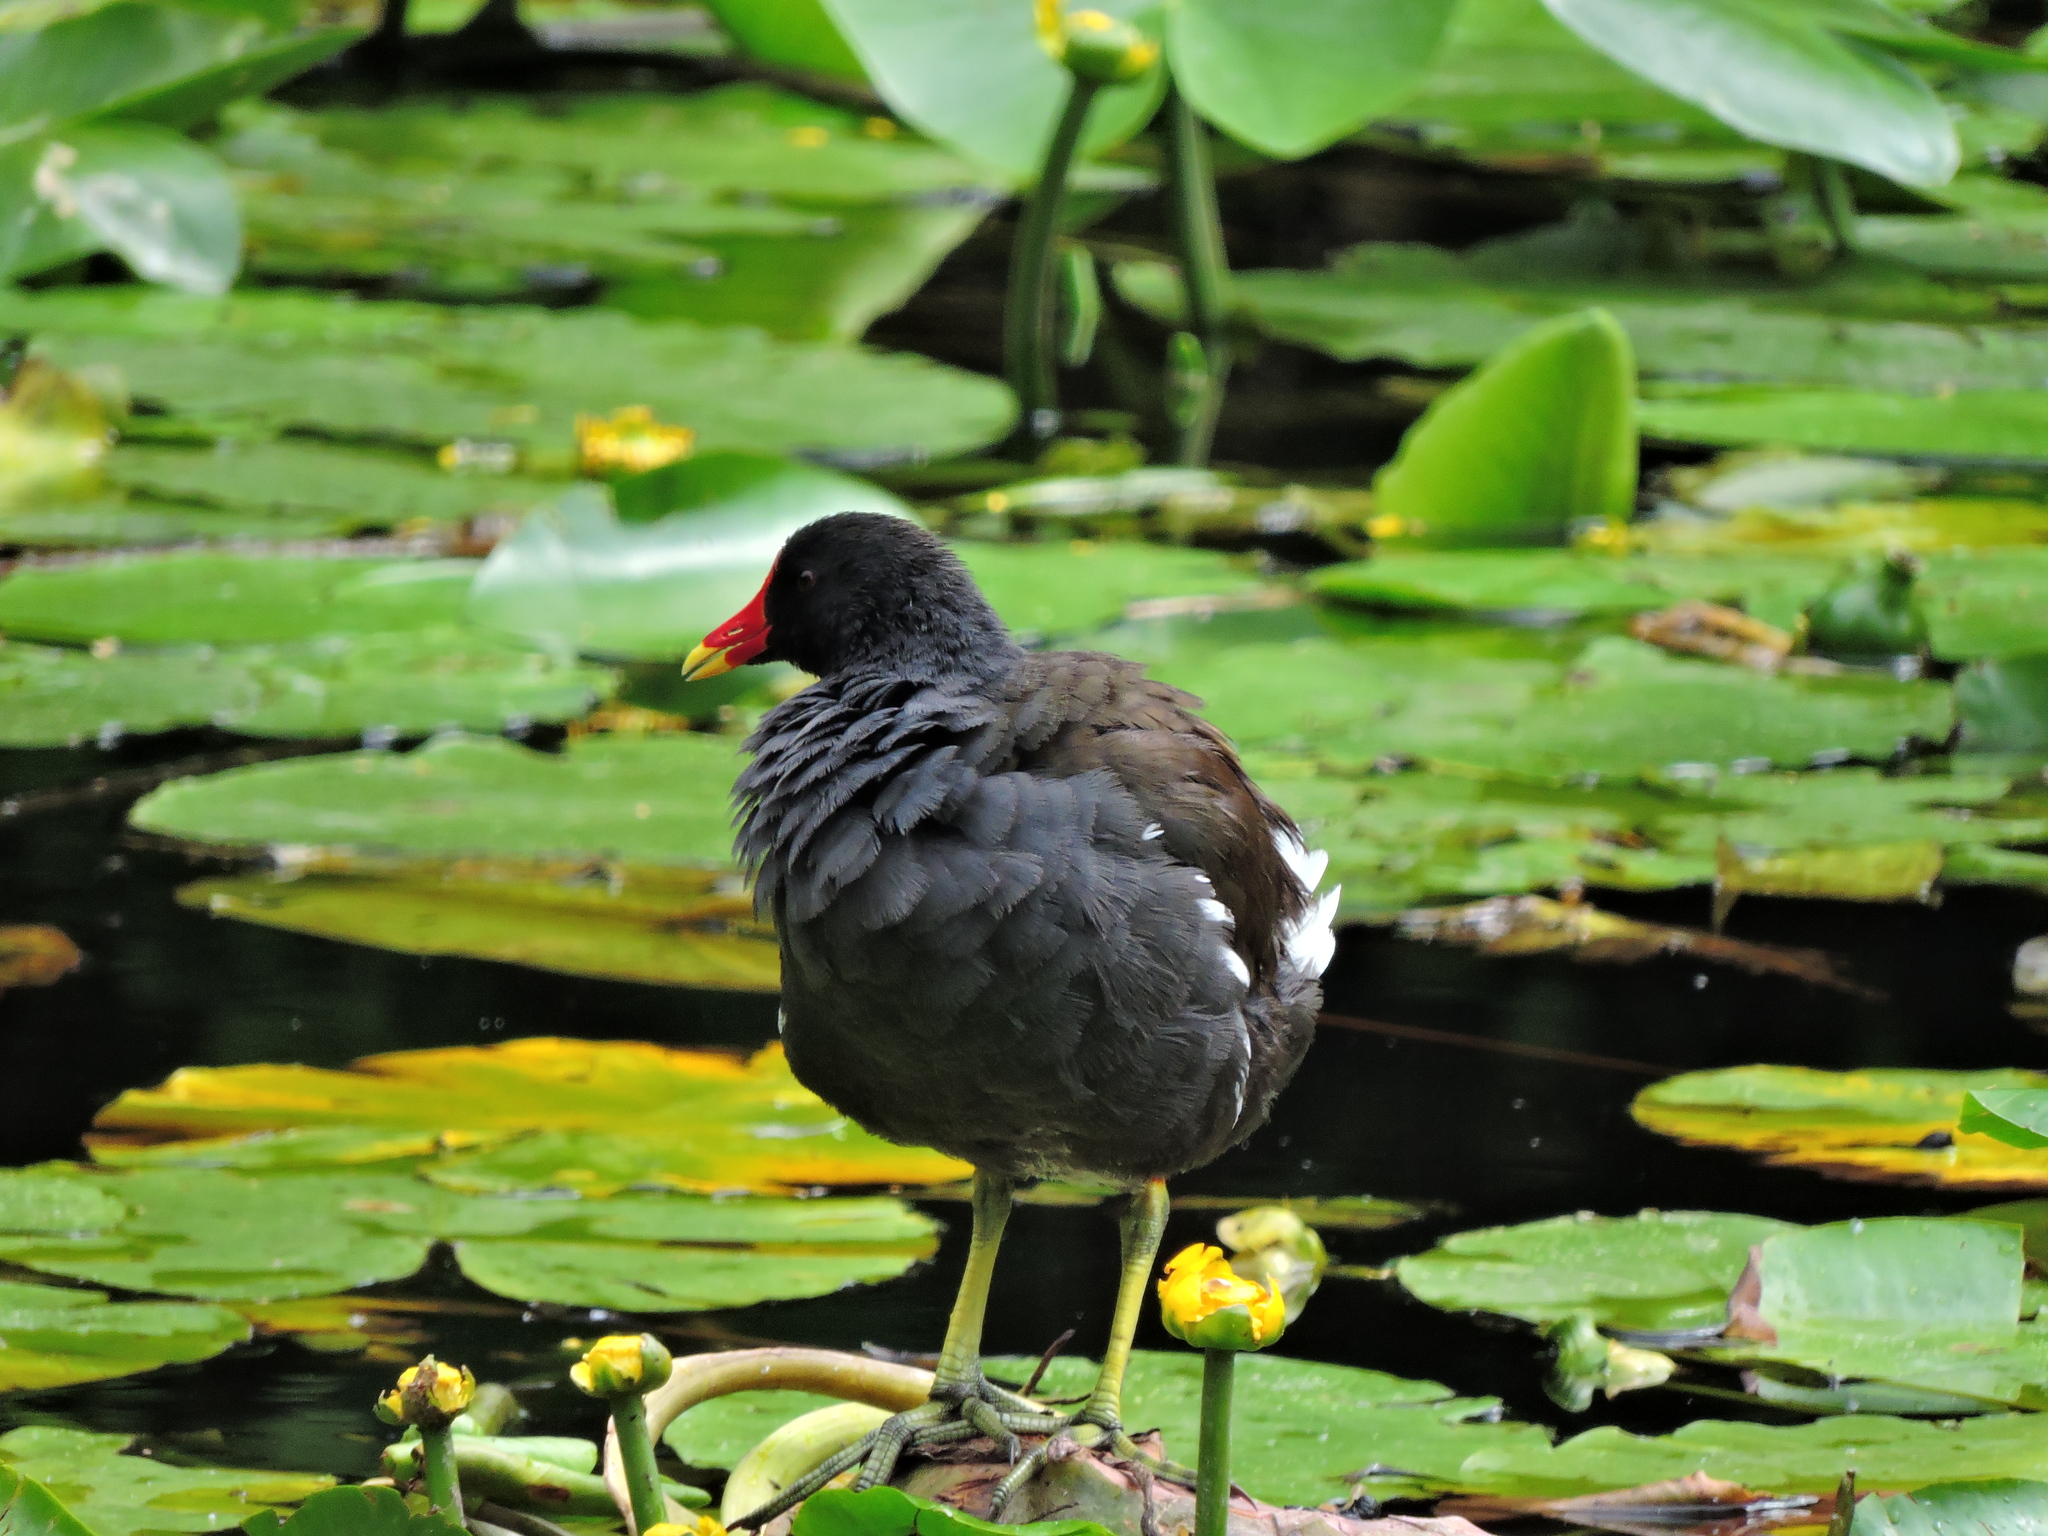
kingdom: Animalia
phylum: Chordata
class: Aves
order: Gruiformes
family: Rallidae
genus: Gallinula
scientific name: Gallinula chloropus
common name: Common moorhen
